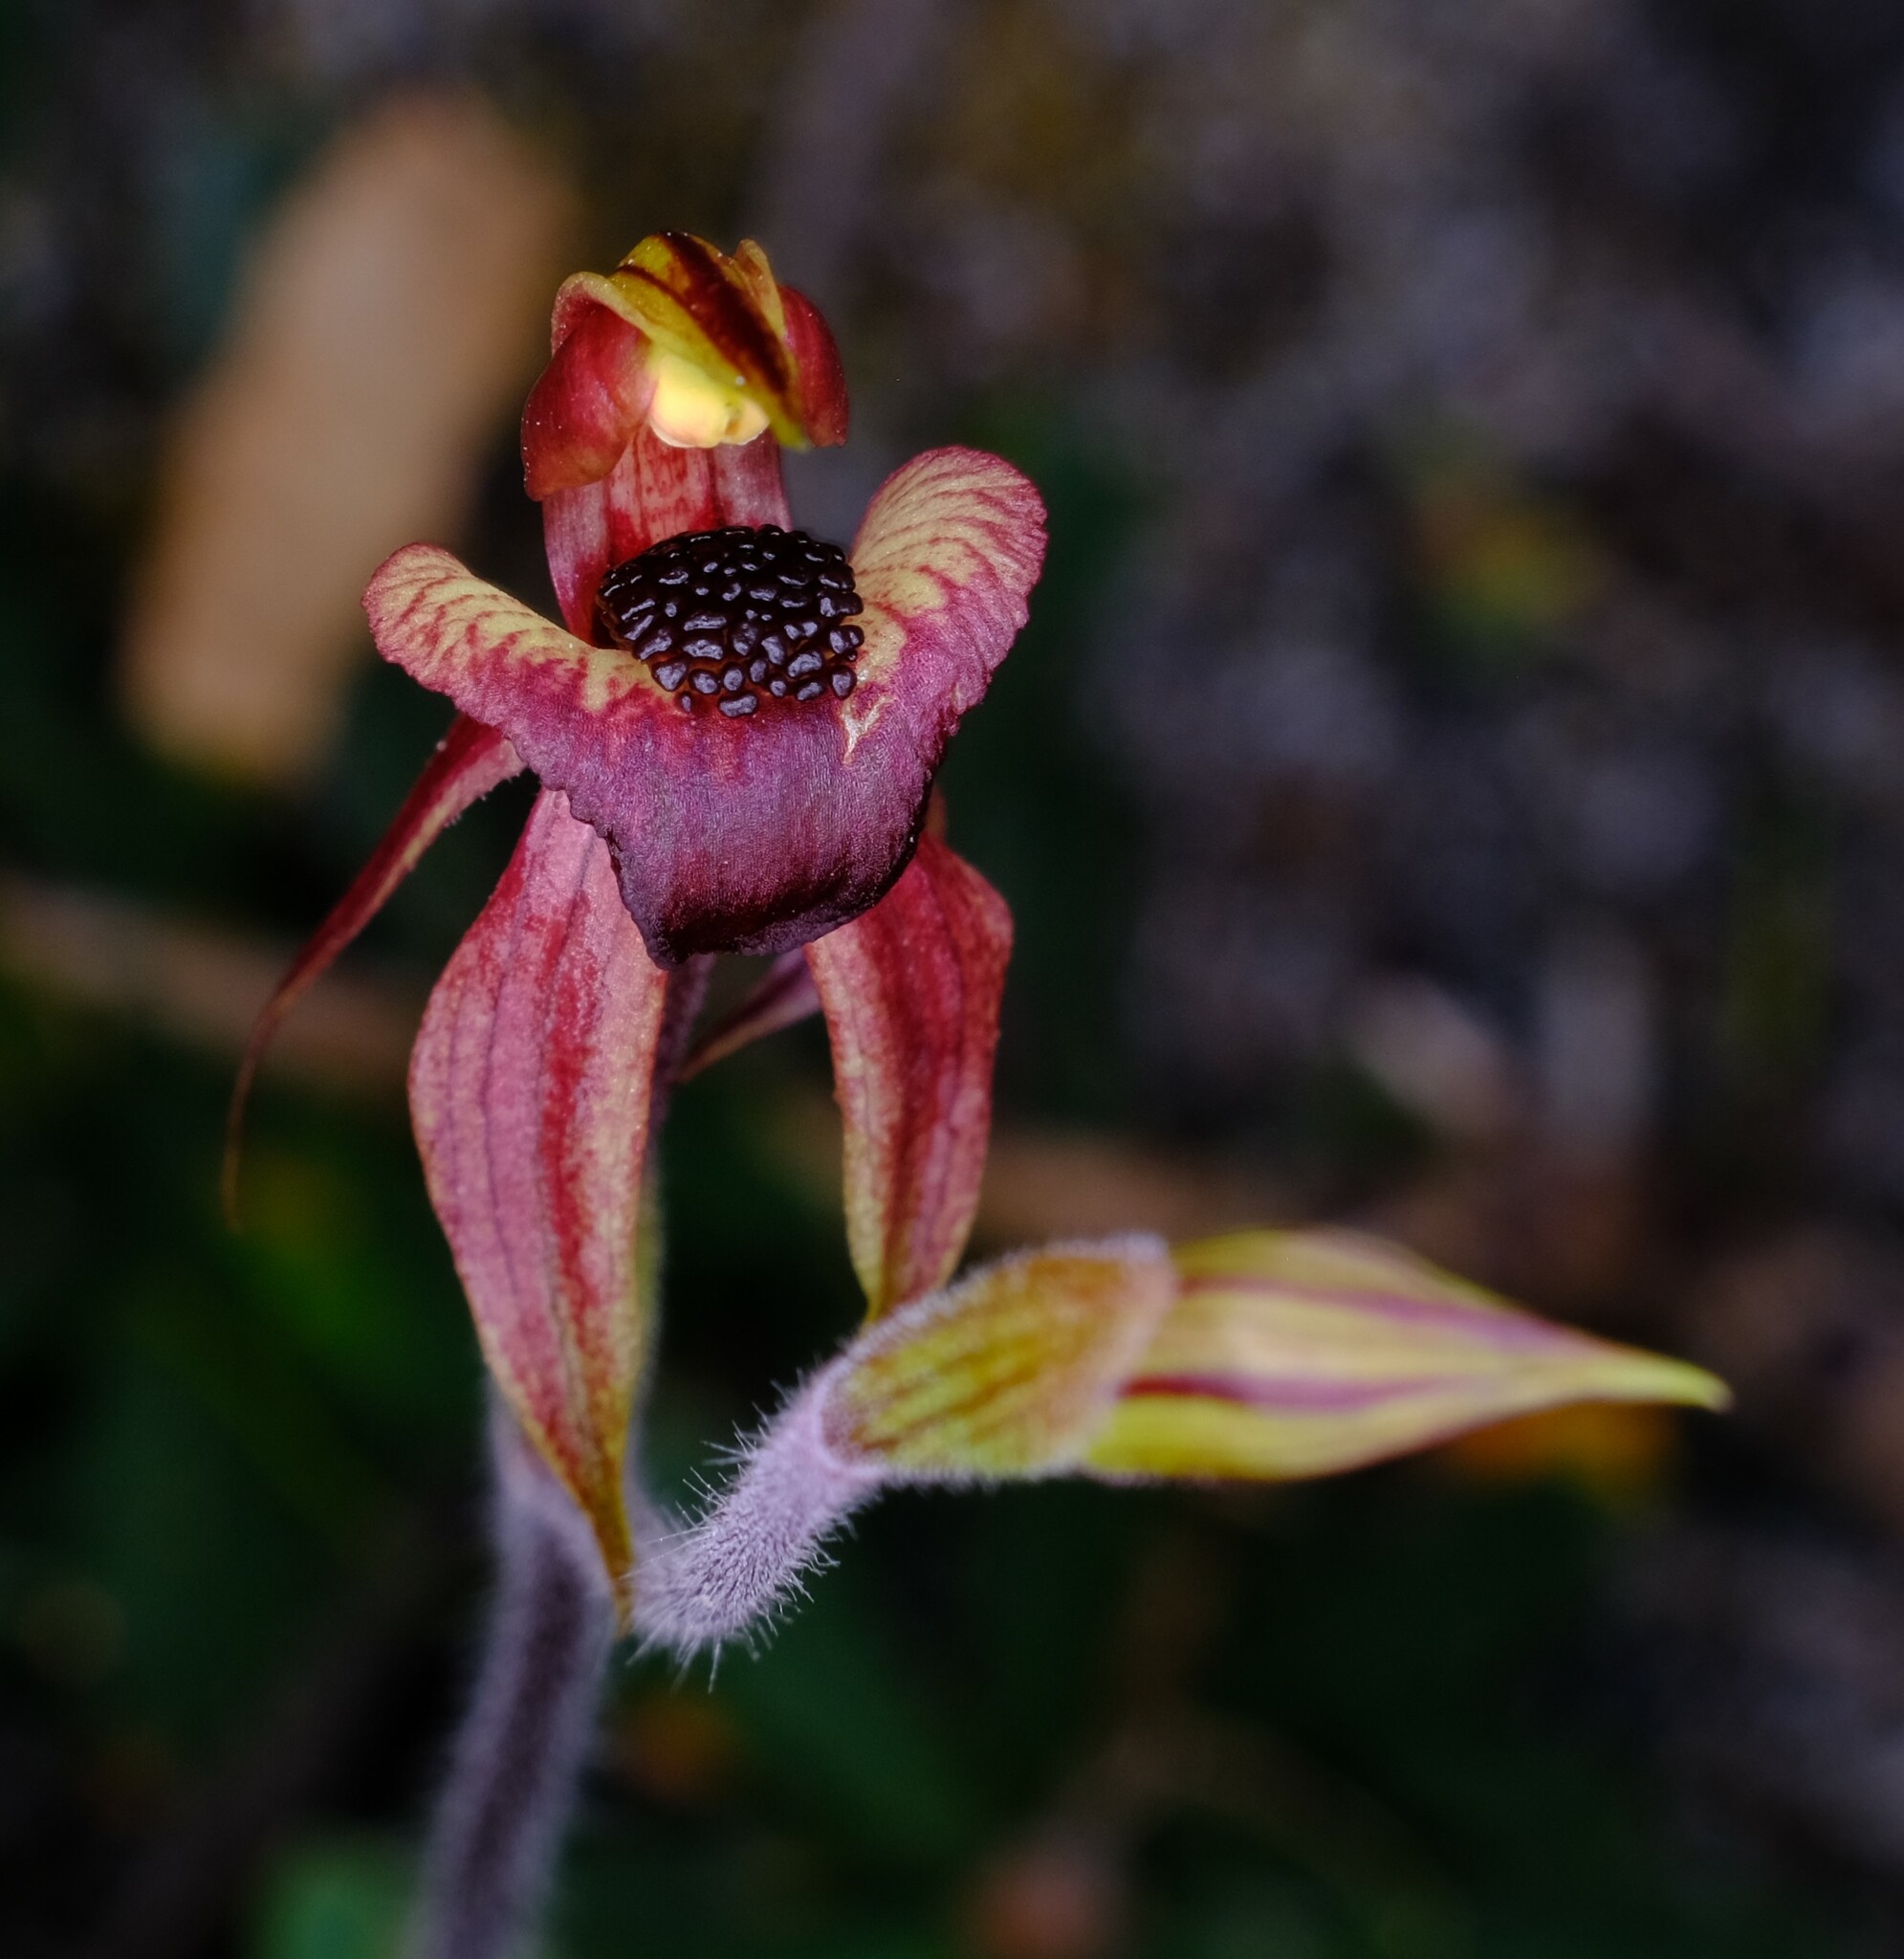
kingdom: Plantae
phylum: Tracheophyta
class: Liliopsida
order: Asparagales
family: Orchidaceae
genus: Caladenia
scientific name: Caladenia tessellata
